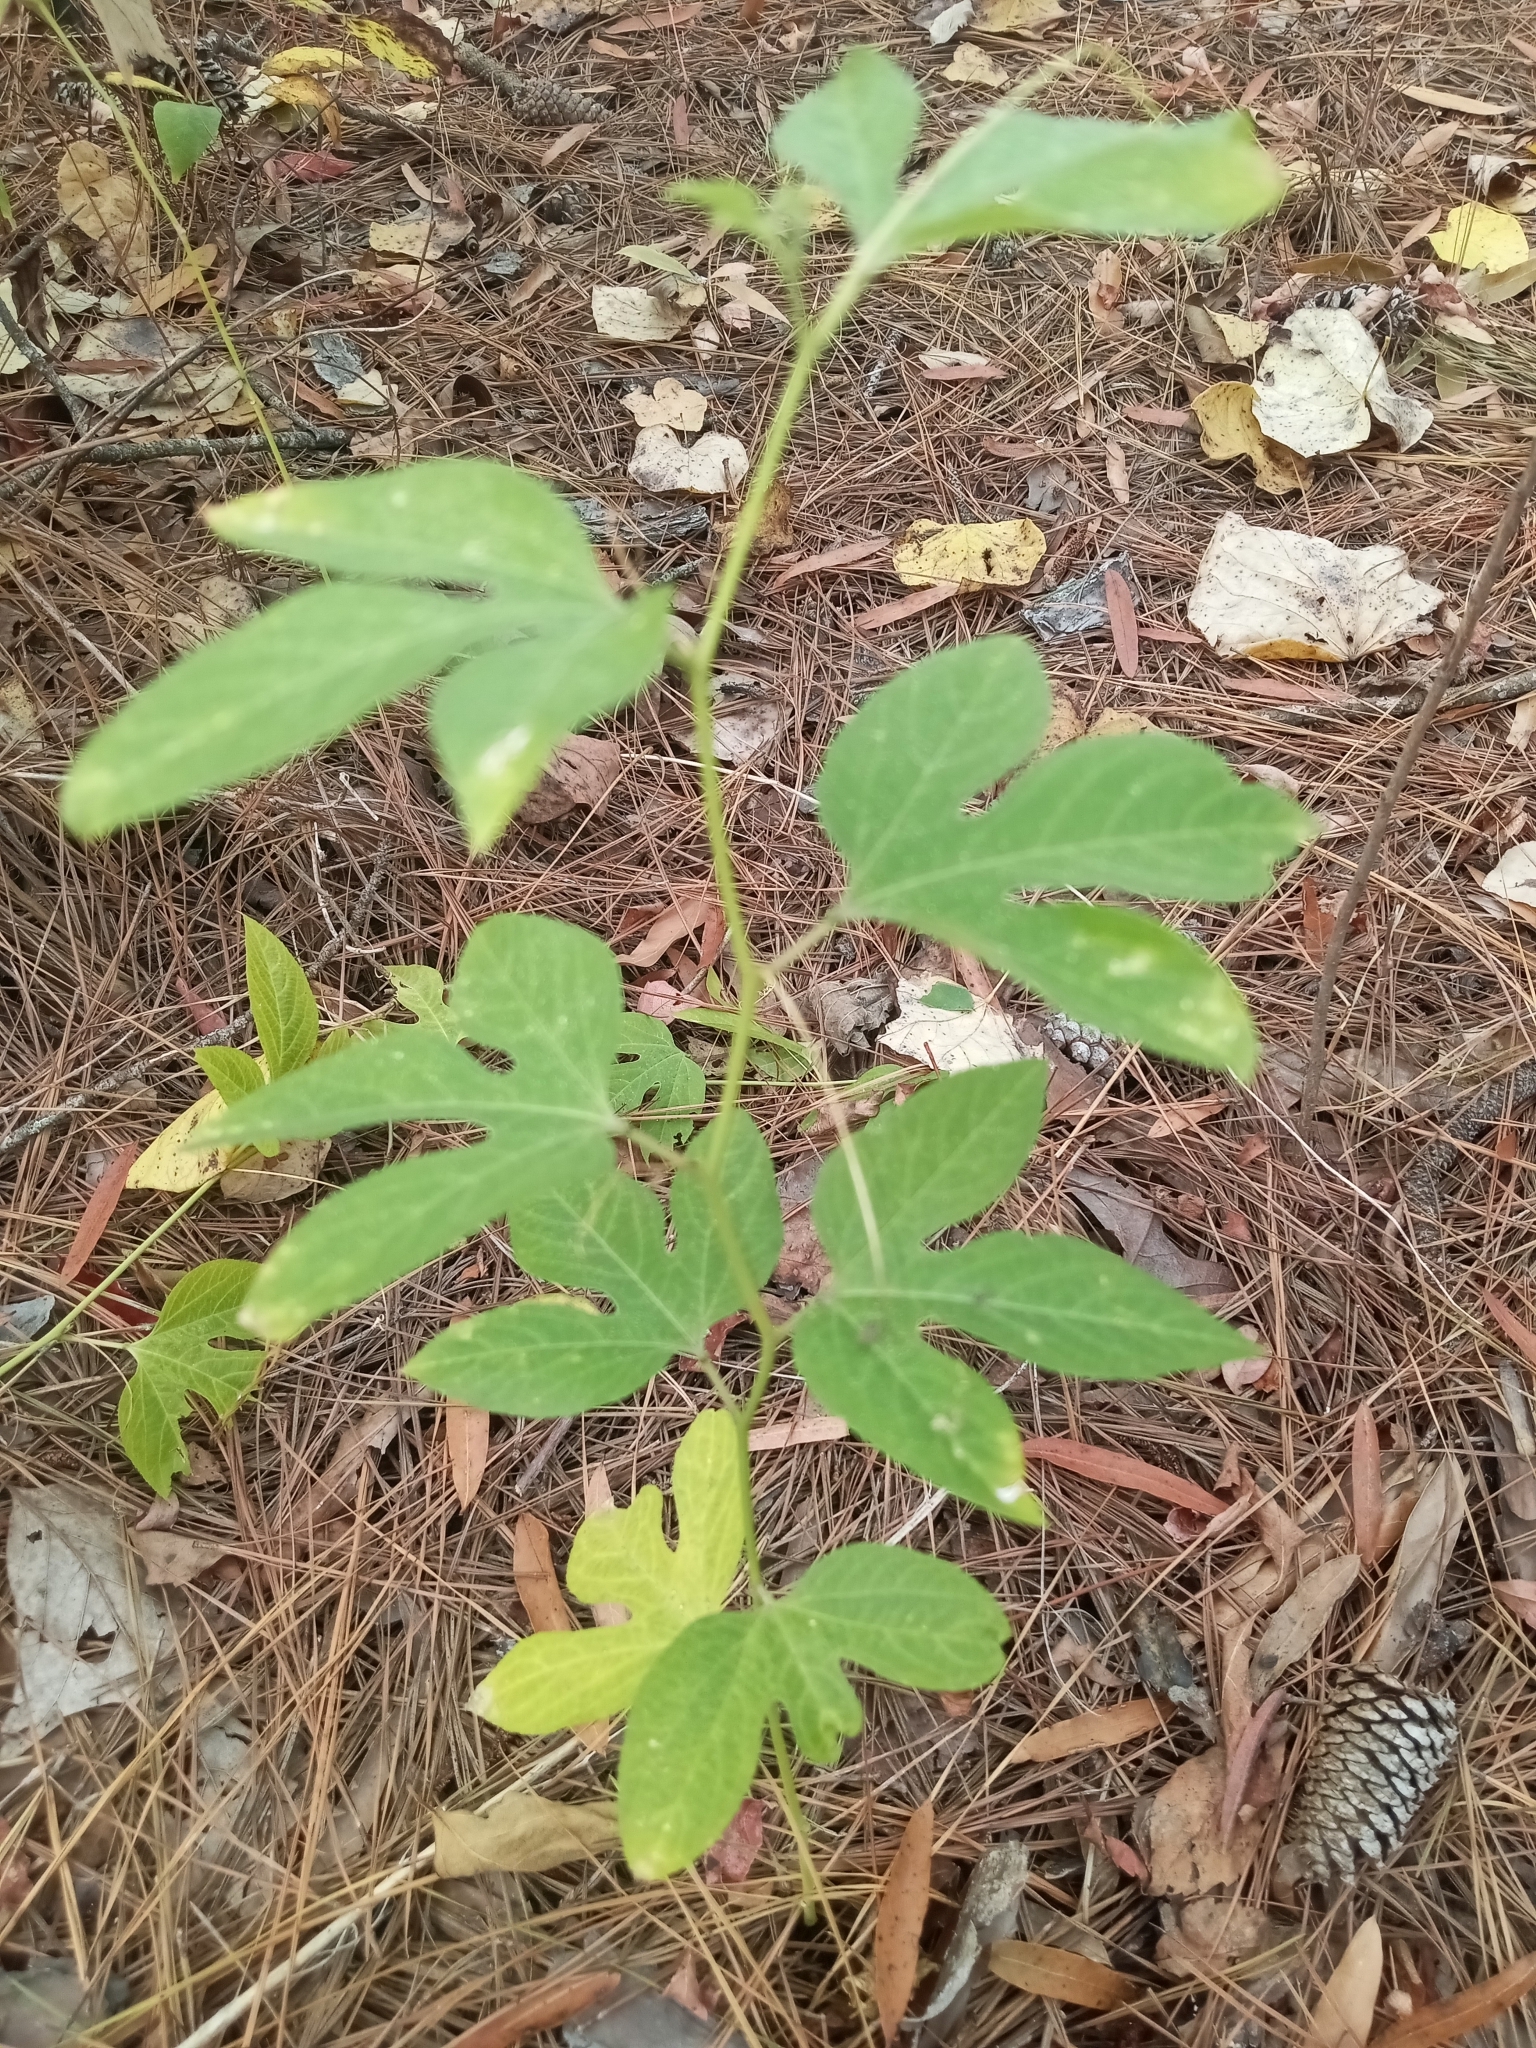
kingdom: Plantae
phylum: Tracheophyta
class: Magnoliopsida
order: Malpighiales
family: Passifloraceae
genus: Passiflora
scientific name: Passiflora incarnata
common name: Apricot-vine
